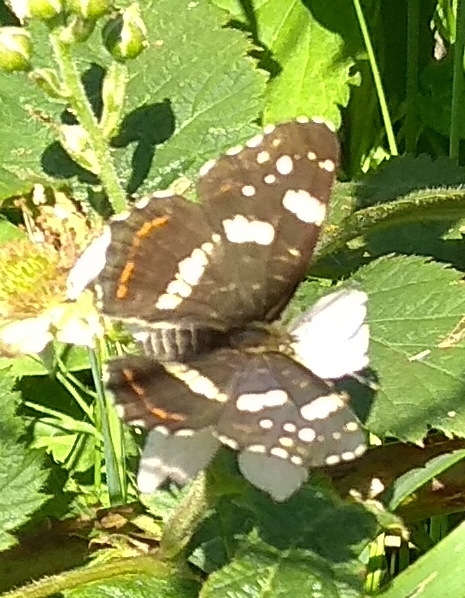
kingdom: Animalia
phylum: Arthropoda
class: Insecta
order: Lepidoptera
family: Nymphalidae
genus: Araschnia
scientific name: Araschnia levana
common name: Map butterfly
